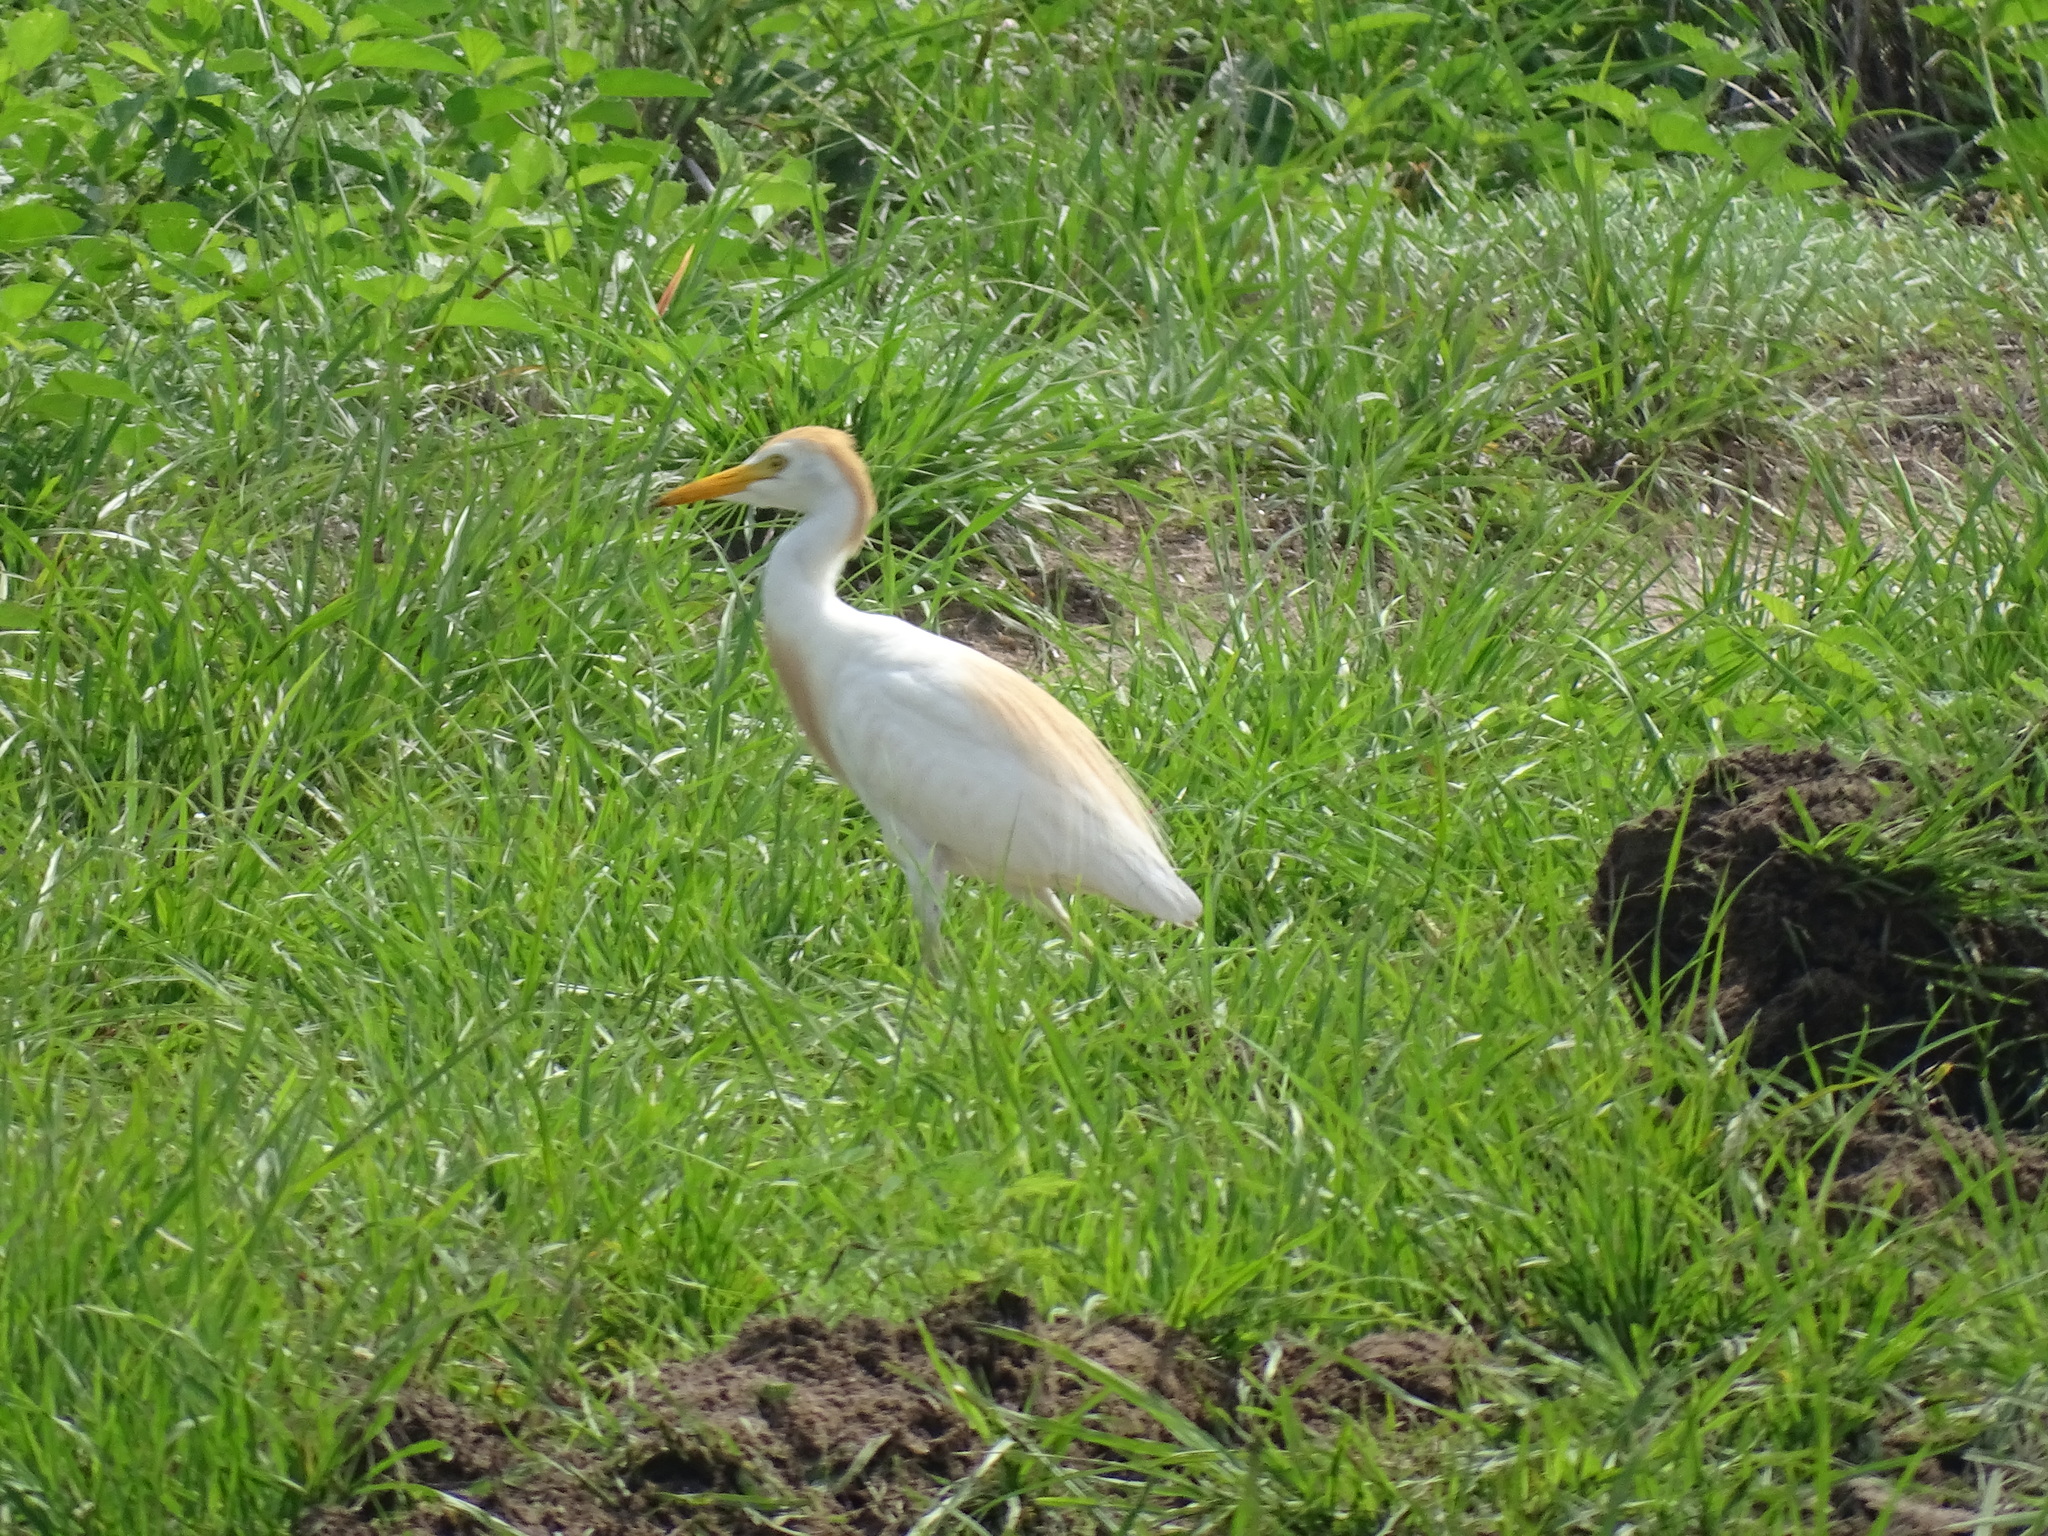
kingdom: Animalia
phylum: Chordata
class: Aves
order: Pelecaniformes
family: Ardeidae
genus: Bubulcus
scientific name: Bubulcus ibis
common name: Cattle egret
